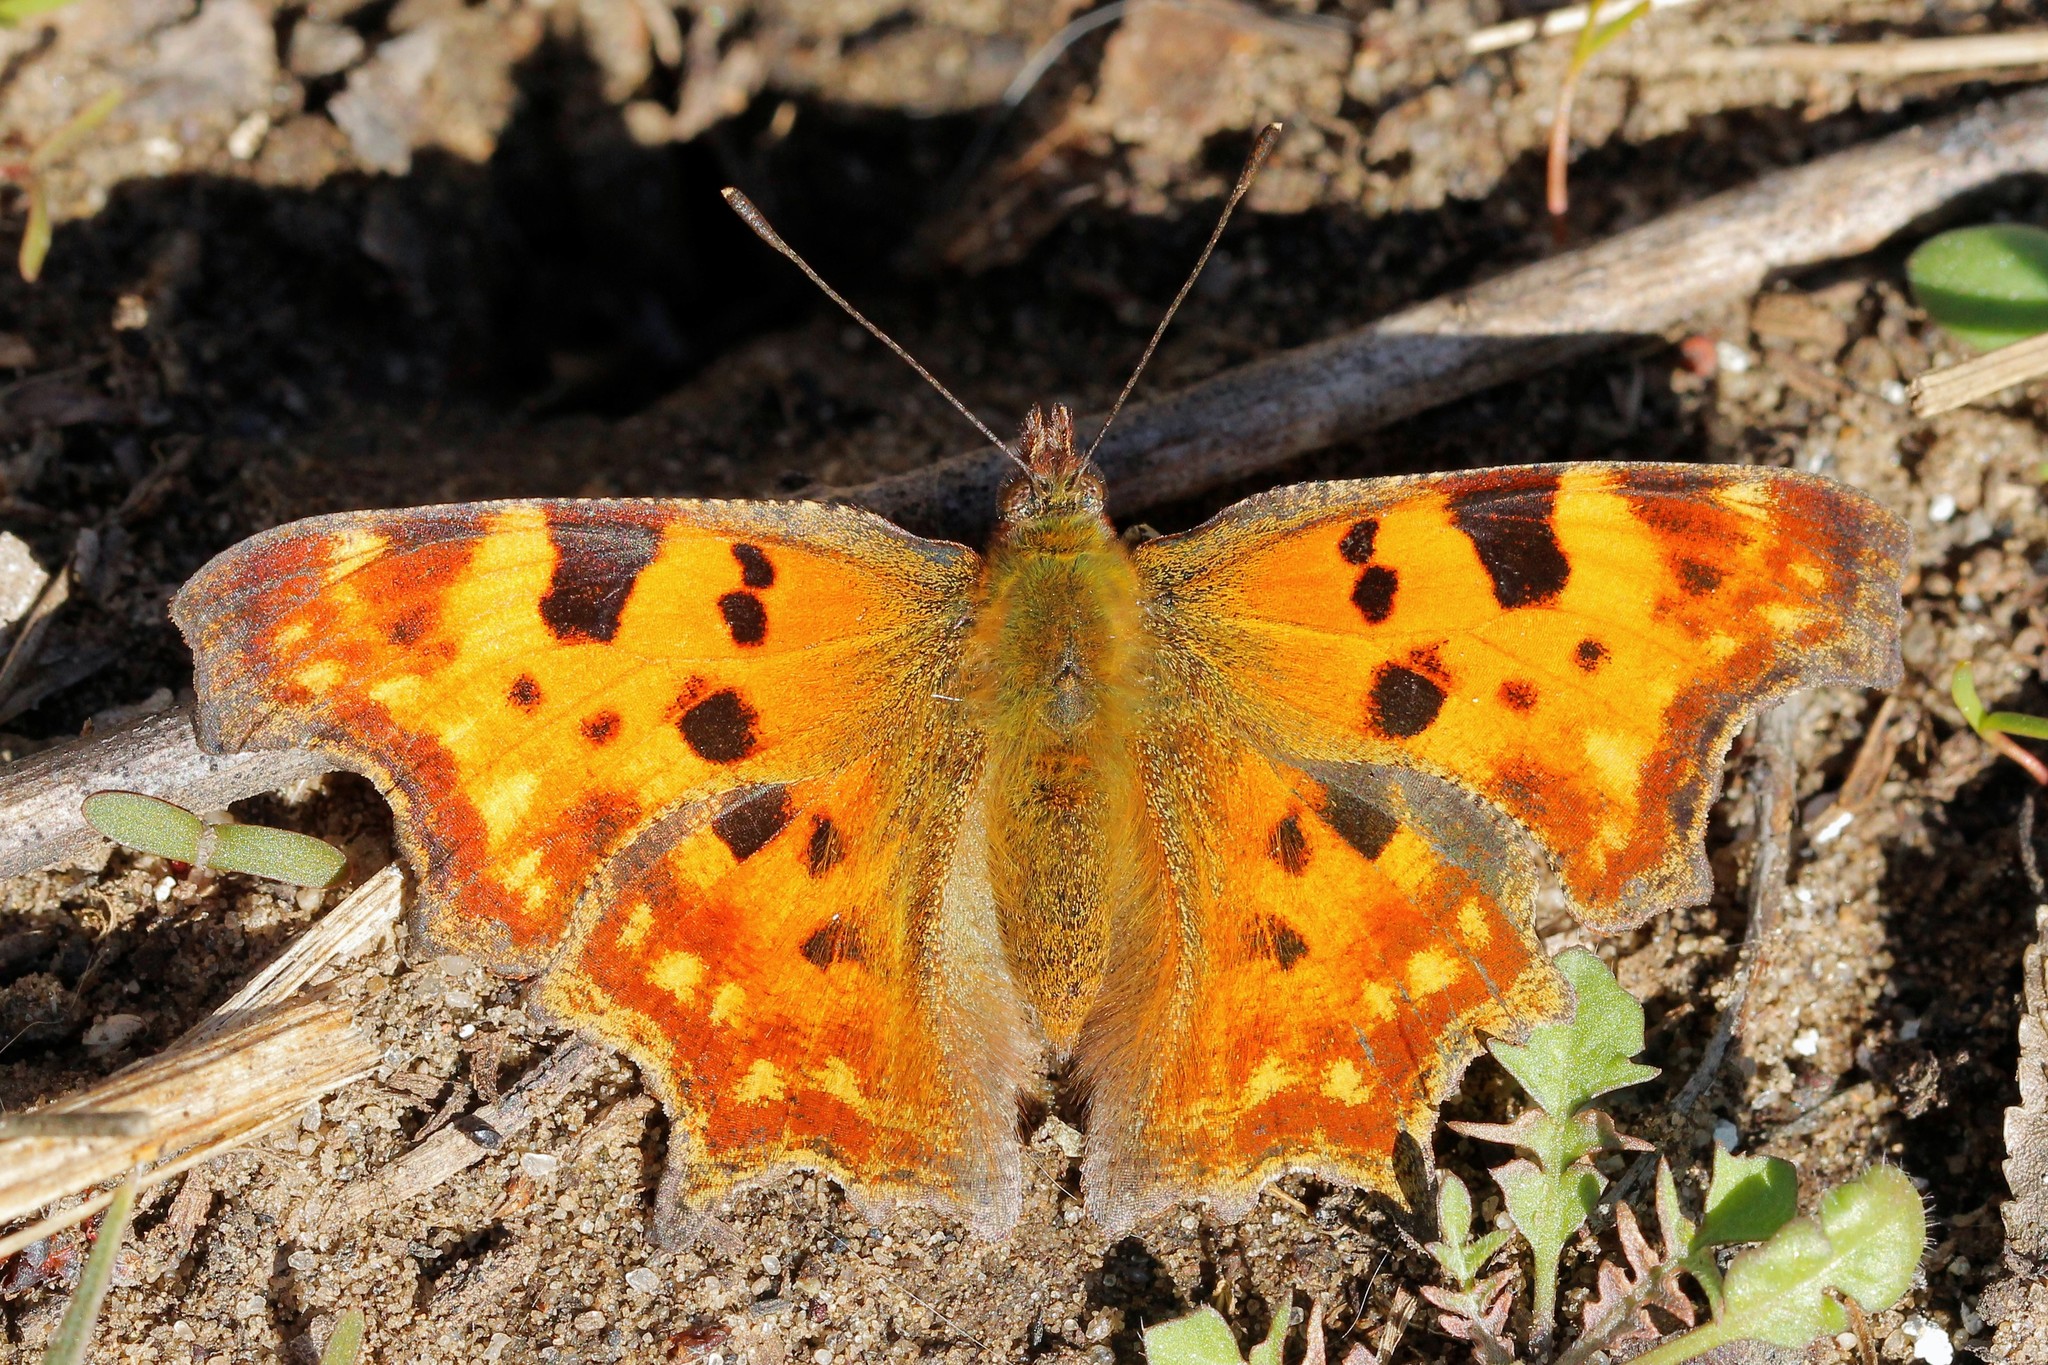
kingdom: Animalia
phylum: Arthropoda
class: Insecta
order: Lepidoptera
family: Nymphalidae
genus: Polygonia
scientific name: Polygonia c-album
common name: Comma
